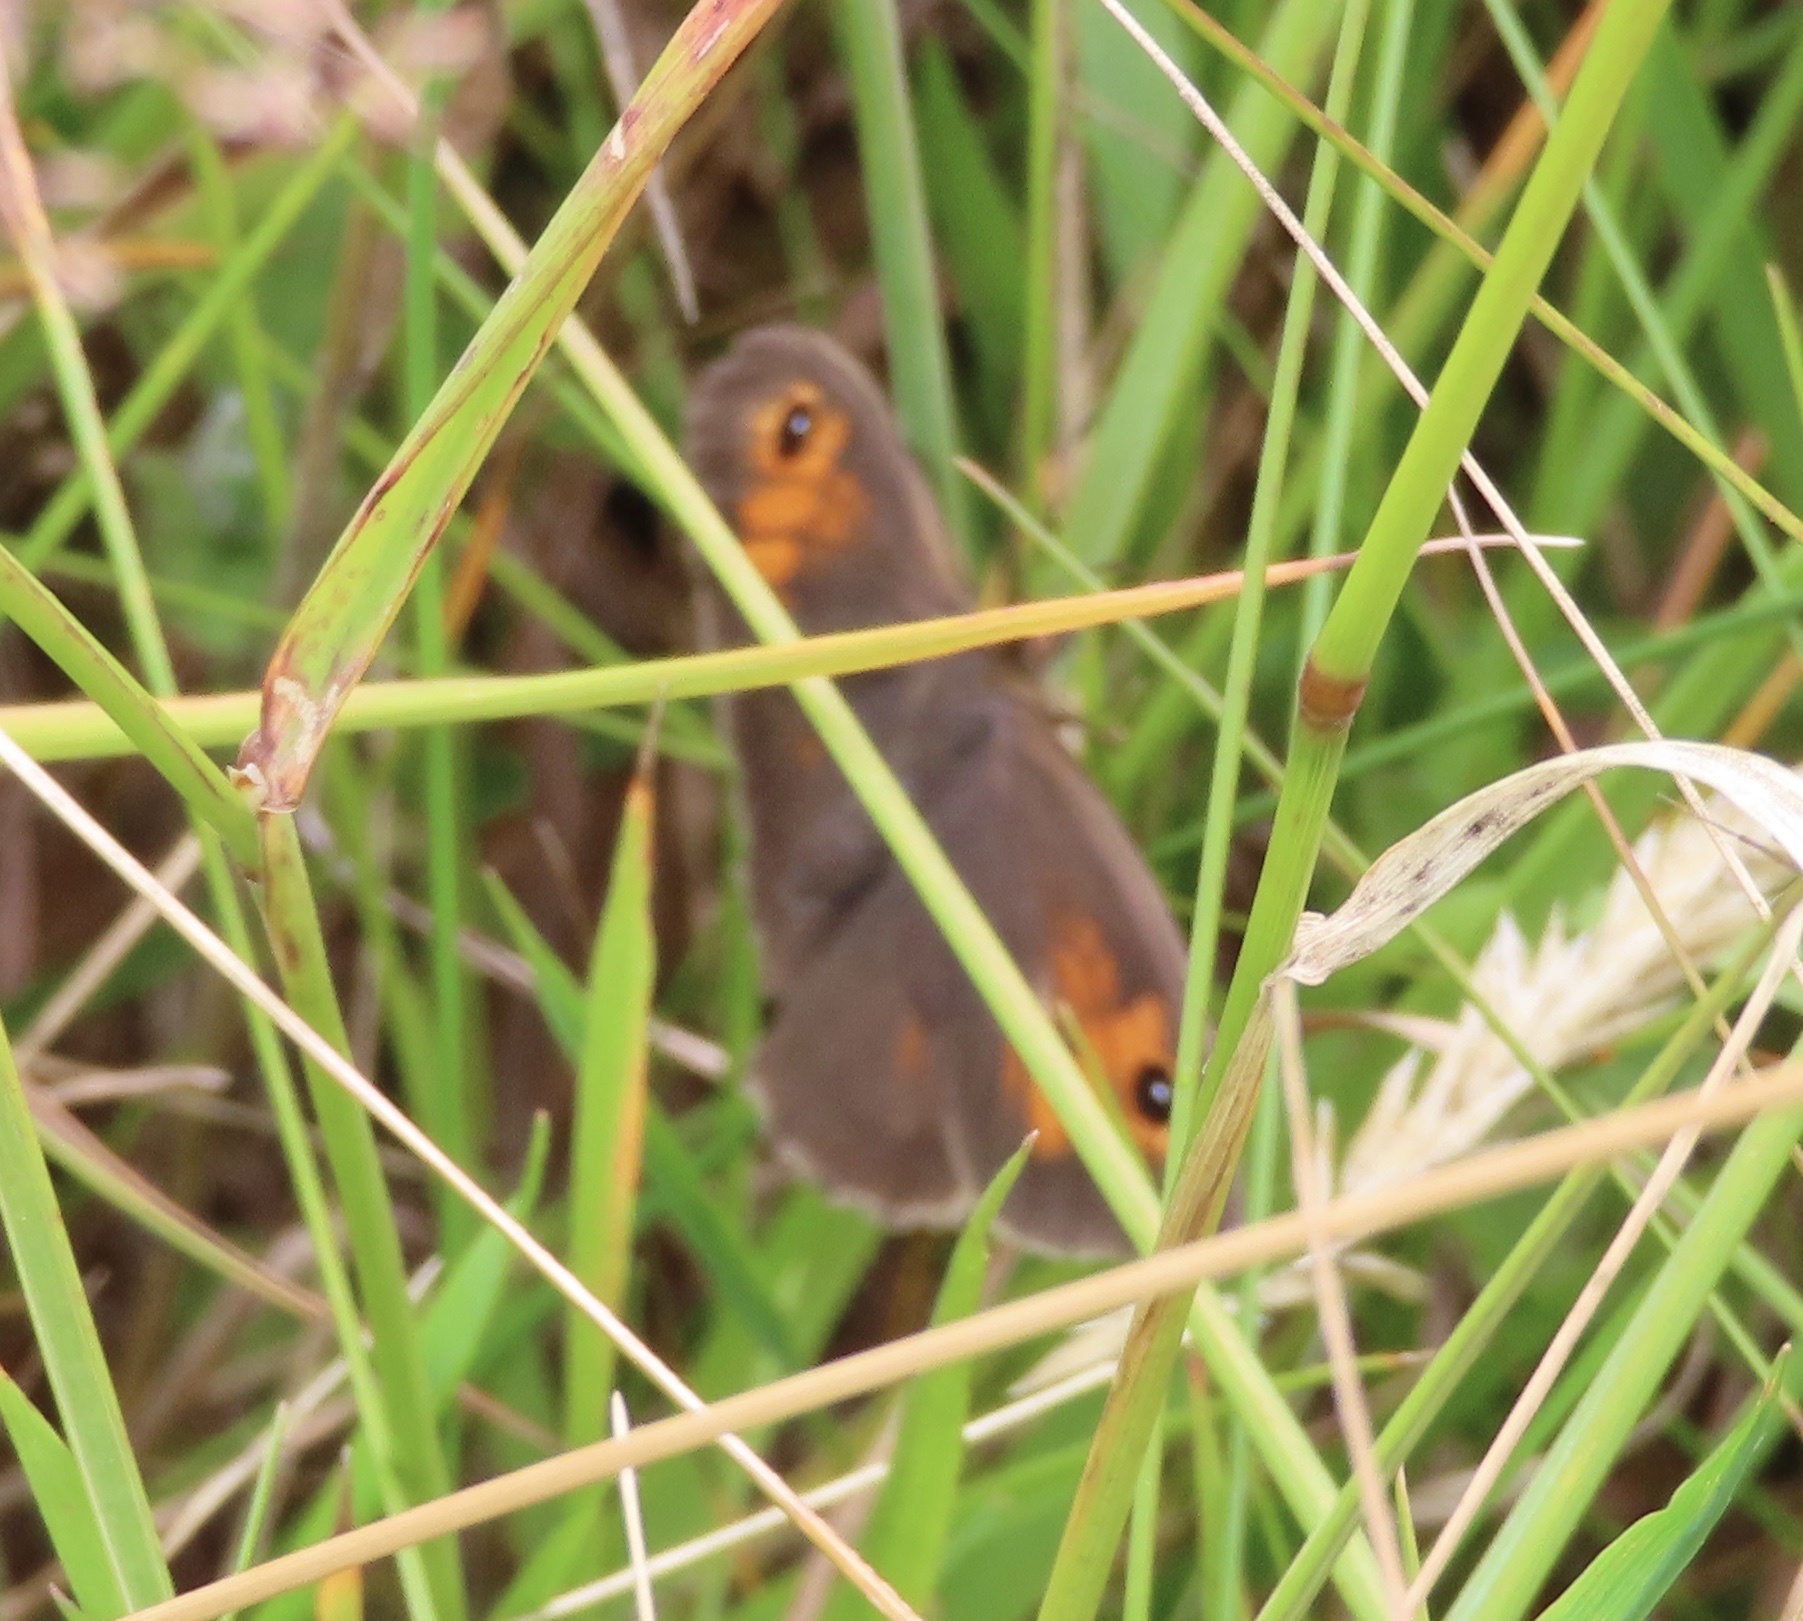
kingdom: Animalia
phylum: Arthropoda
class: Insecta
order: Lepidoptera
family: Nymphalidae
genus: Maniola
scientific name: Maniola jurtina
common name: Meadow brown
